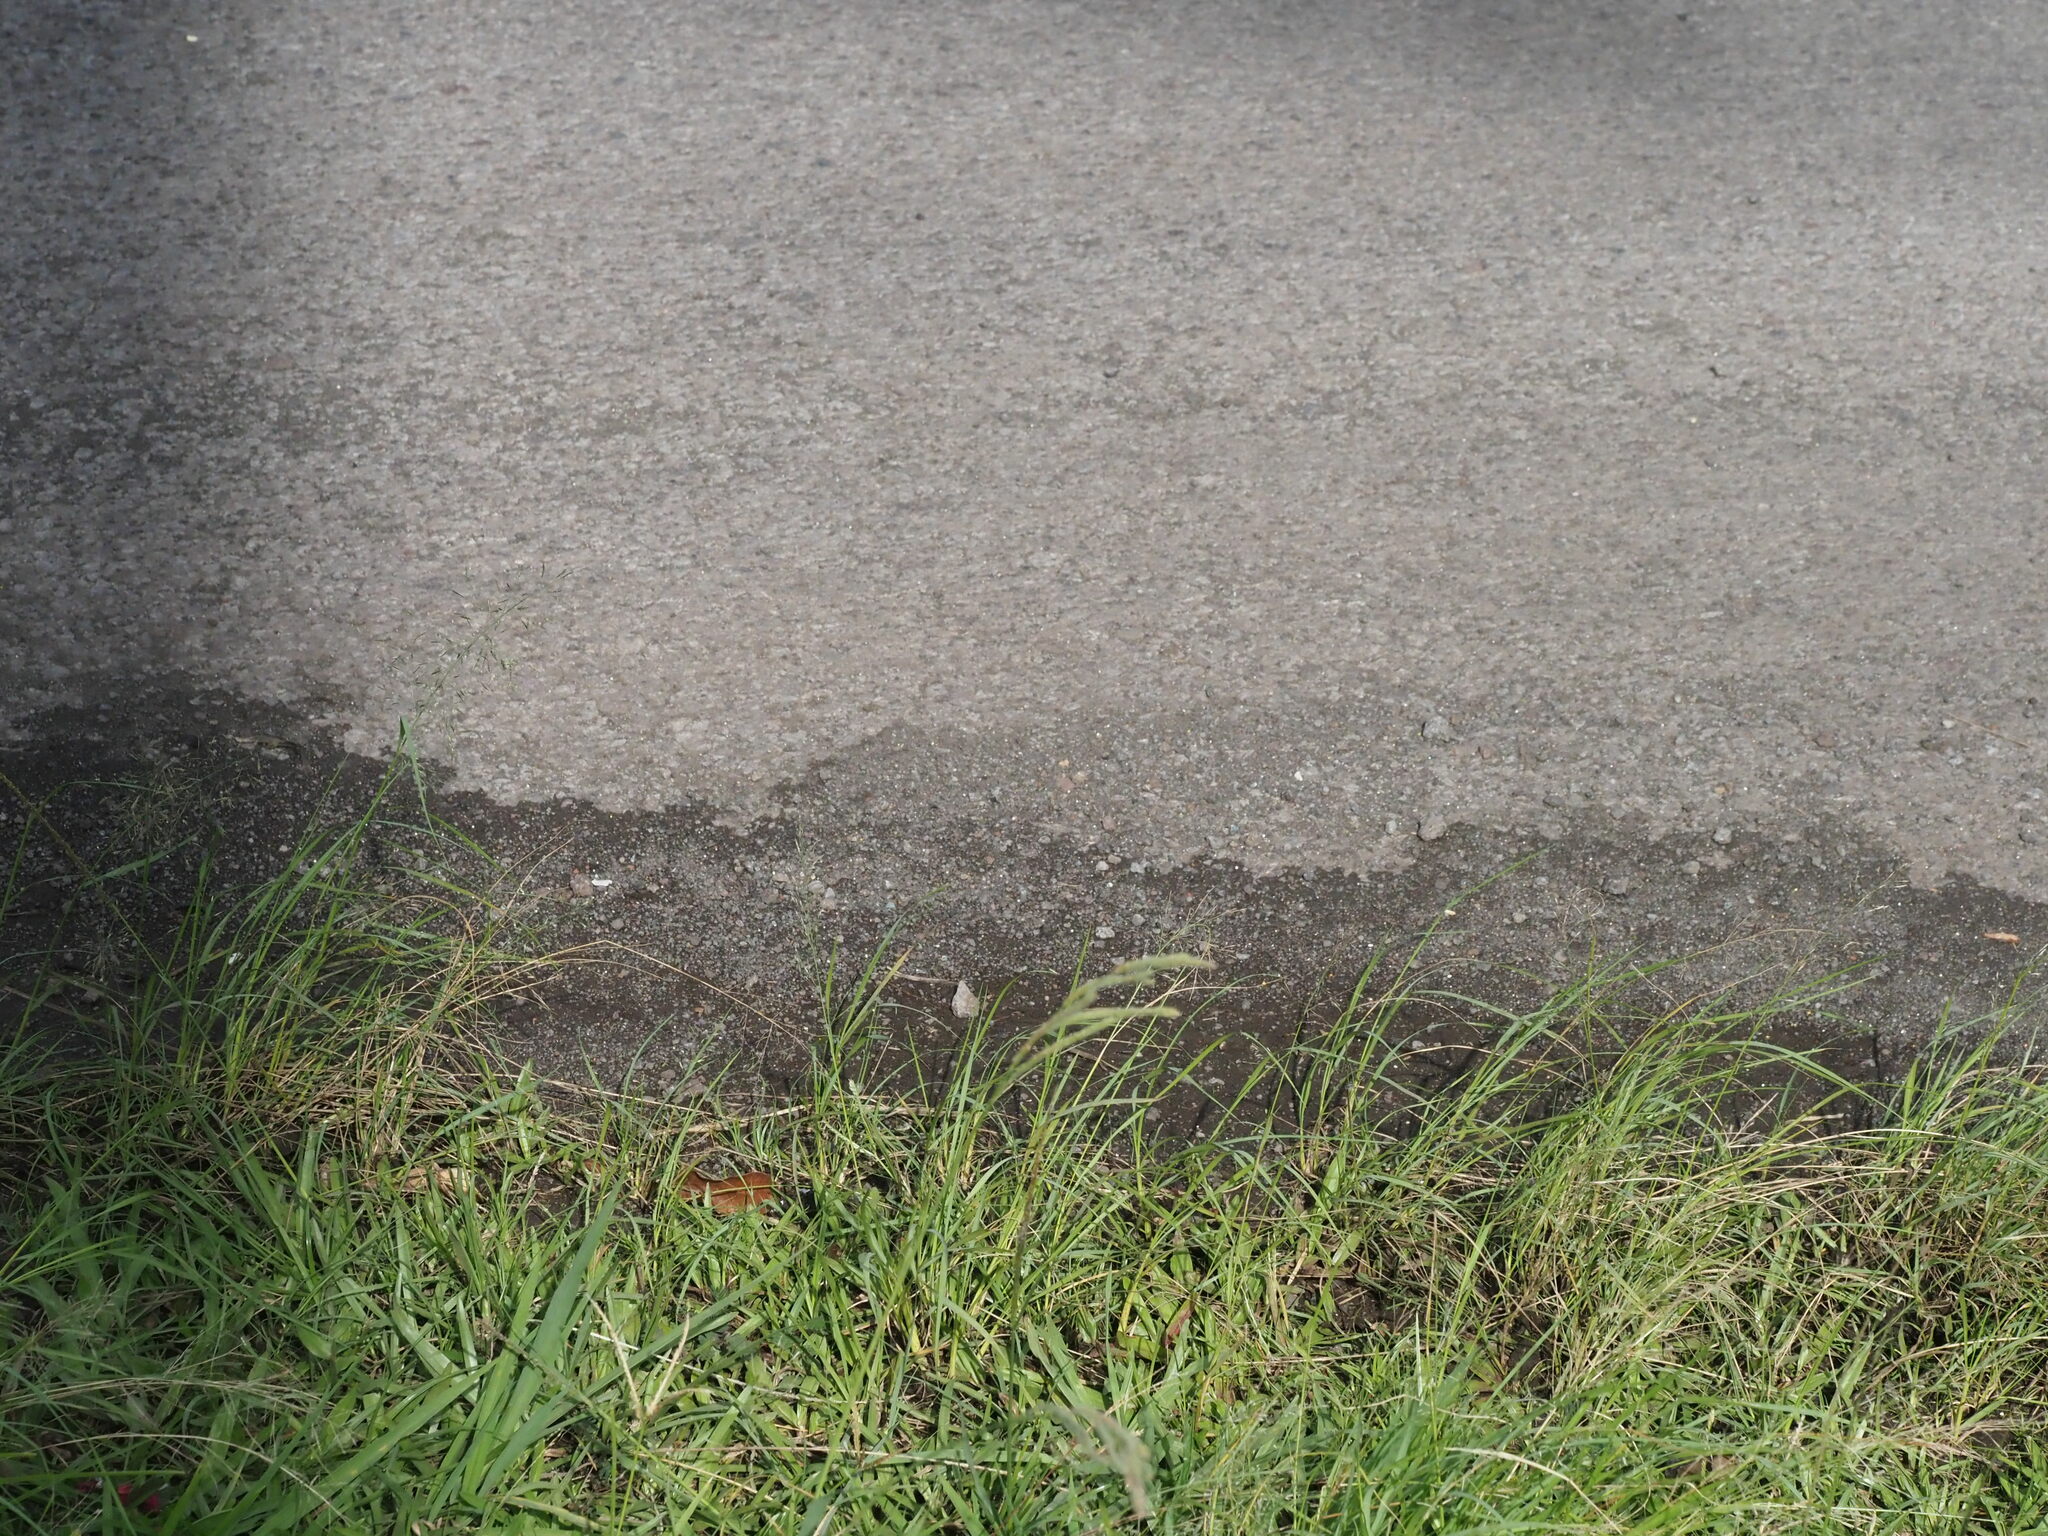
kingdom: Plantae
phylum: Tracheophyta
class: Liliopsida
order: Poales
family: Poaceae
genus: Paspalum
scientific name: Paspalum urvillei
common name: Vasey's grass
